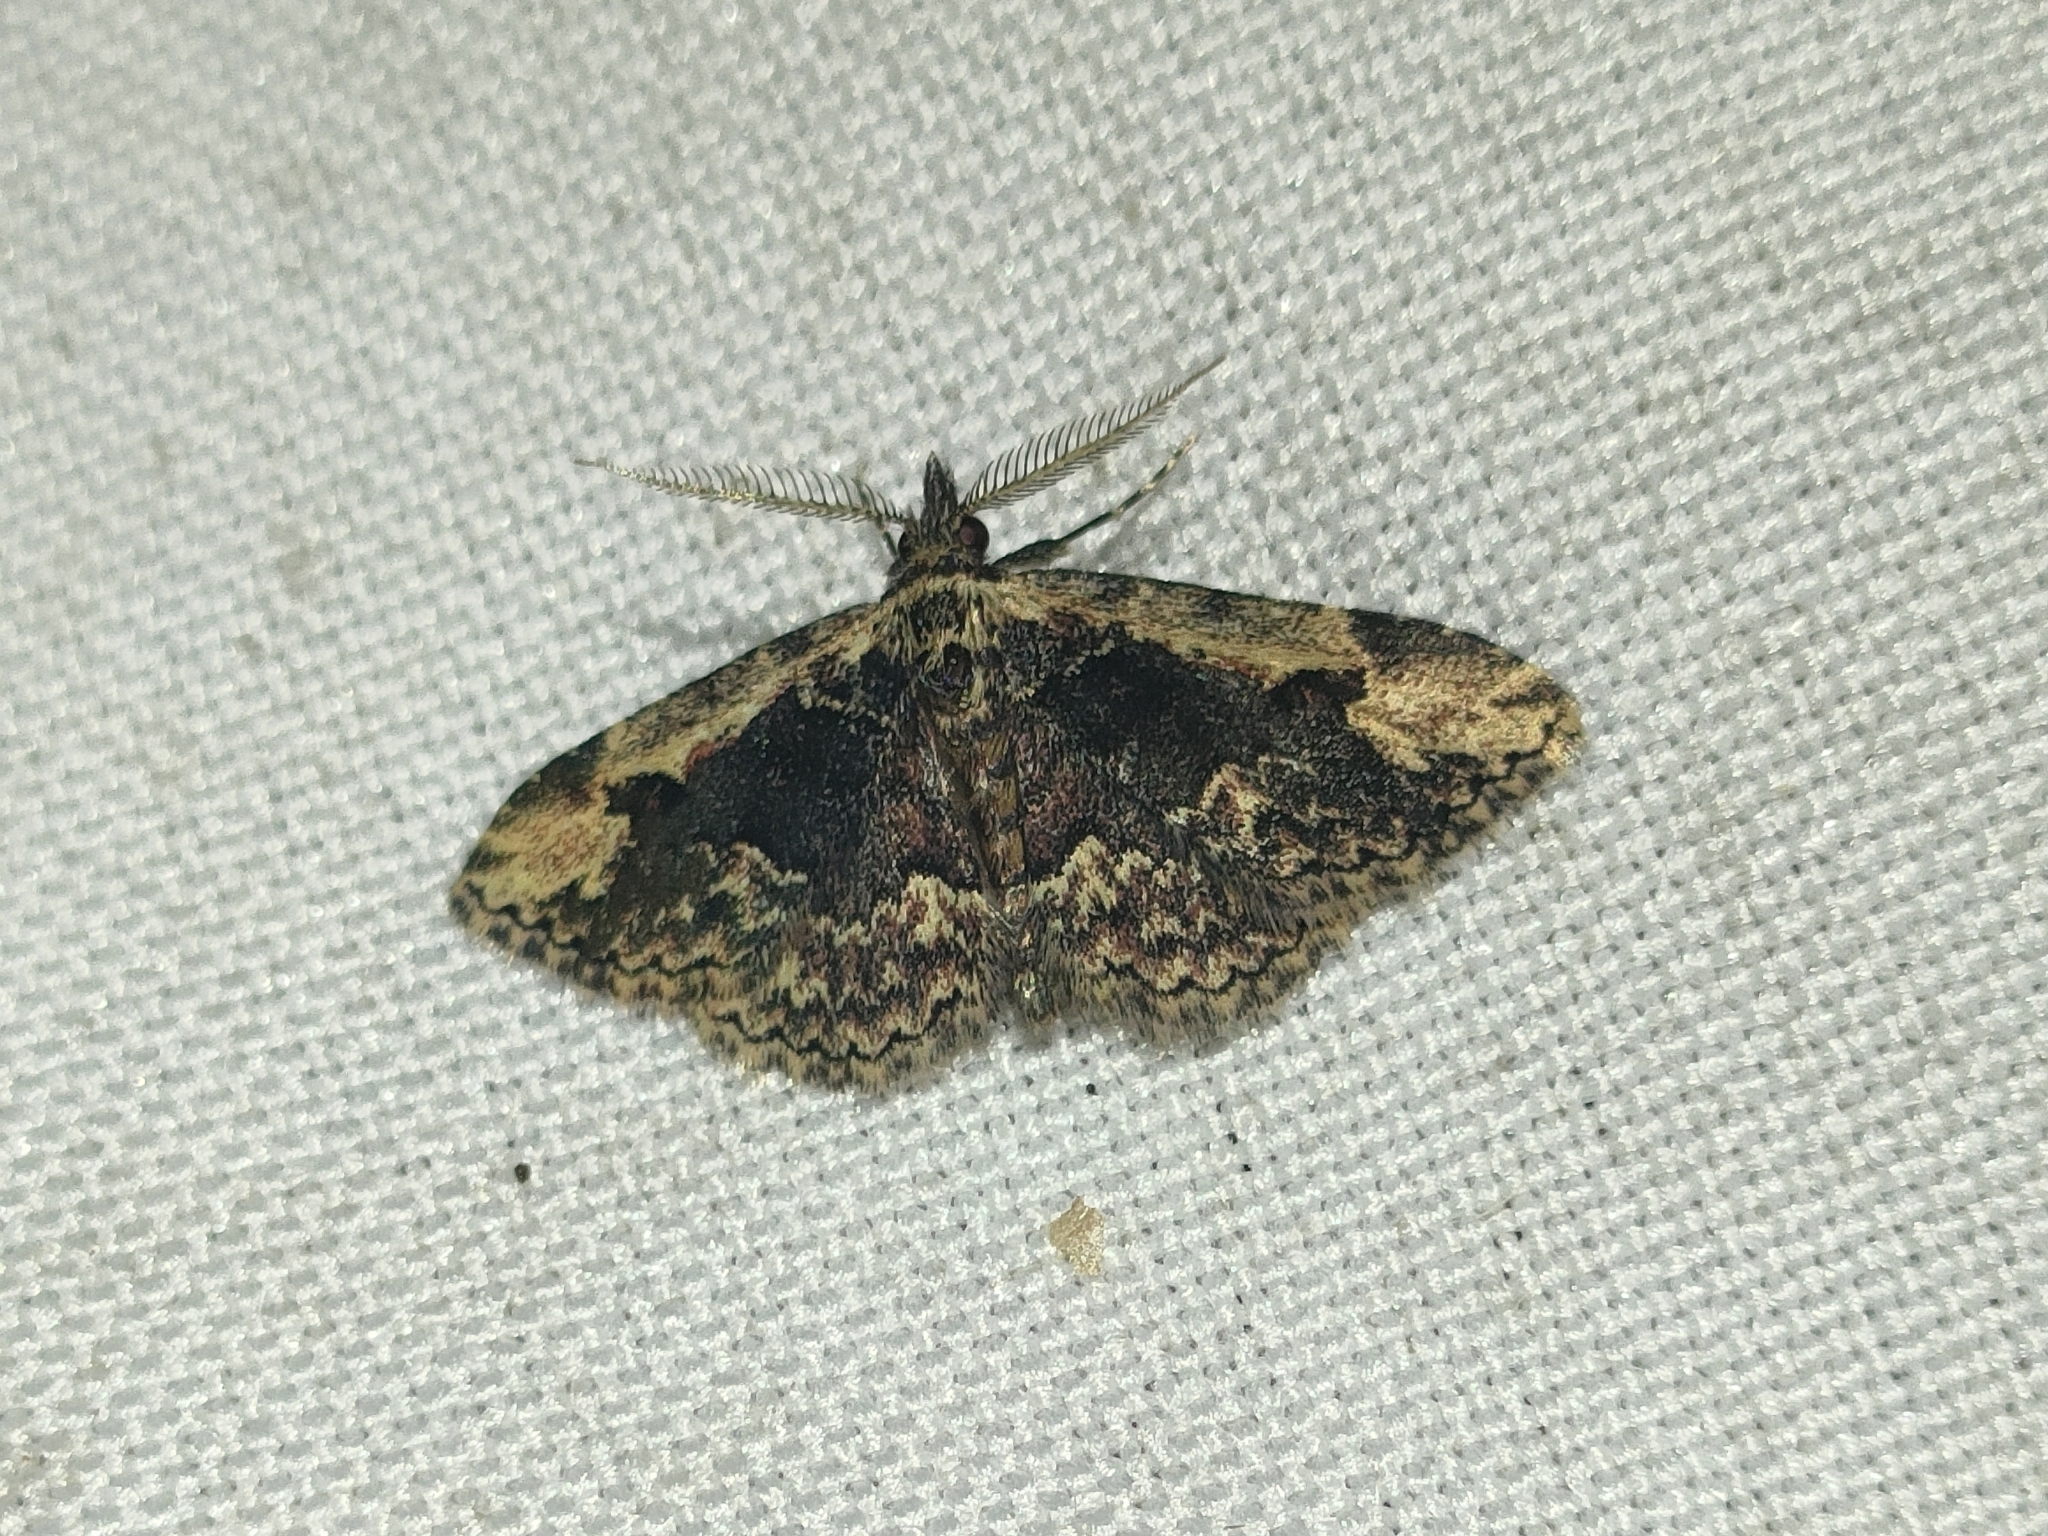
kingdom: Animalia
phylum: Arthropoda
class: Insecta
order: Lepidoptera
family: Erebidae
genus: Parascotia
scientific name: Parascotia nisseni
